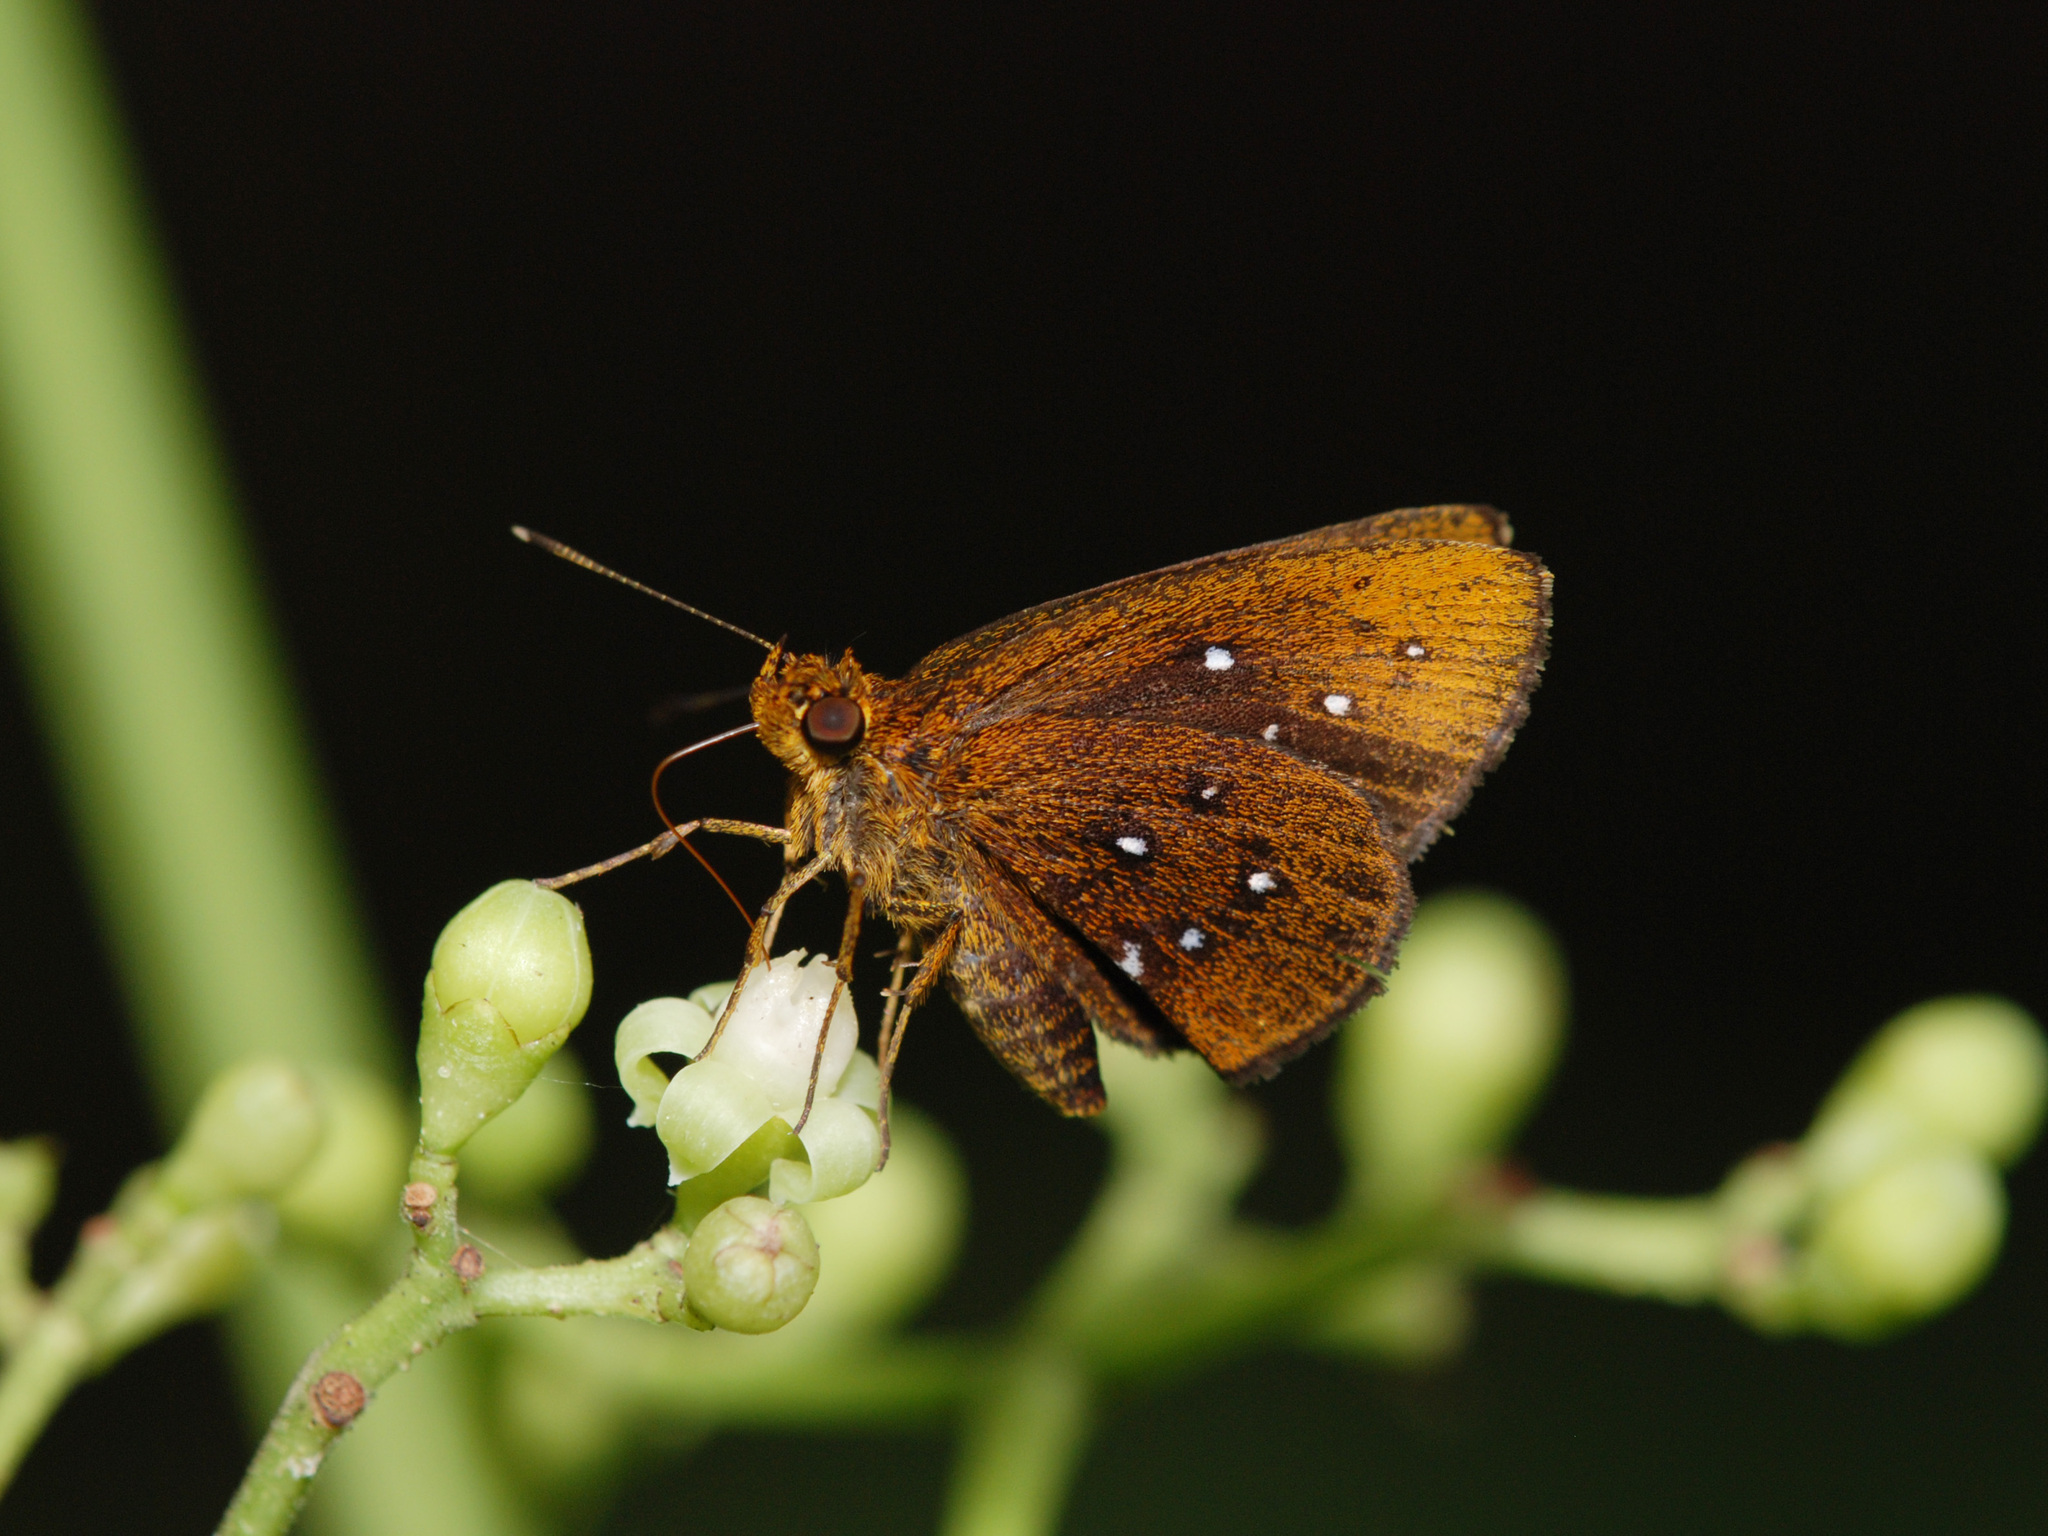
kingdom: Animalia
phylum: Arthropoda
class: Insecta
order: Lepidoptera
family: Hesperiidae
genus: Iambrix
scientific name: Iambrix stellifer
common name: Starry bob
